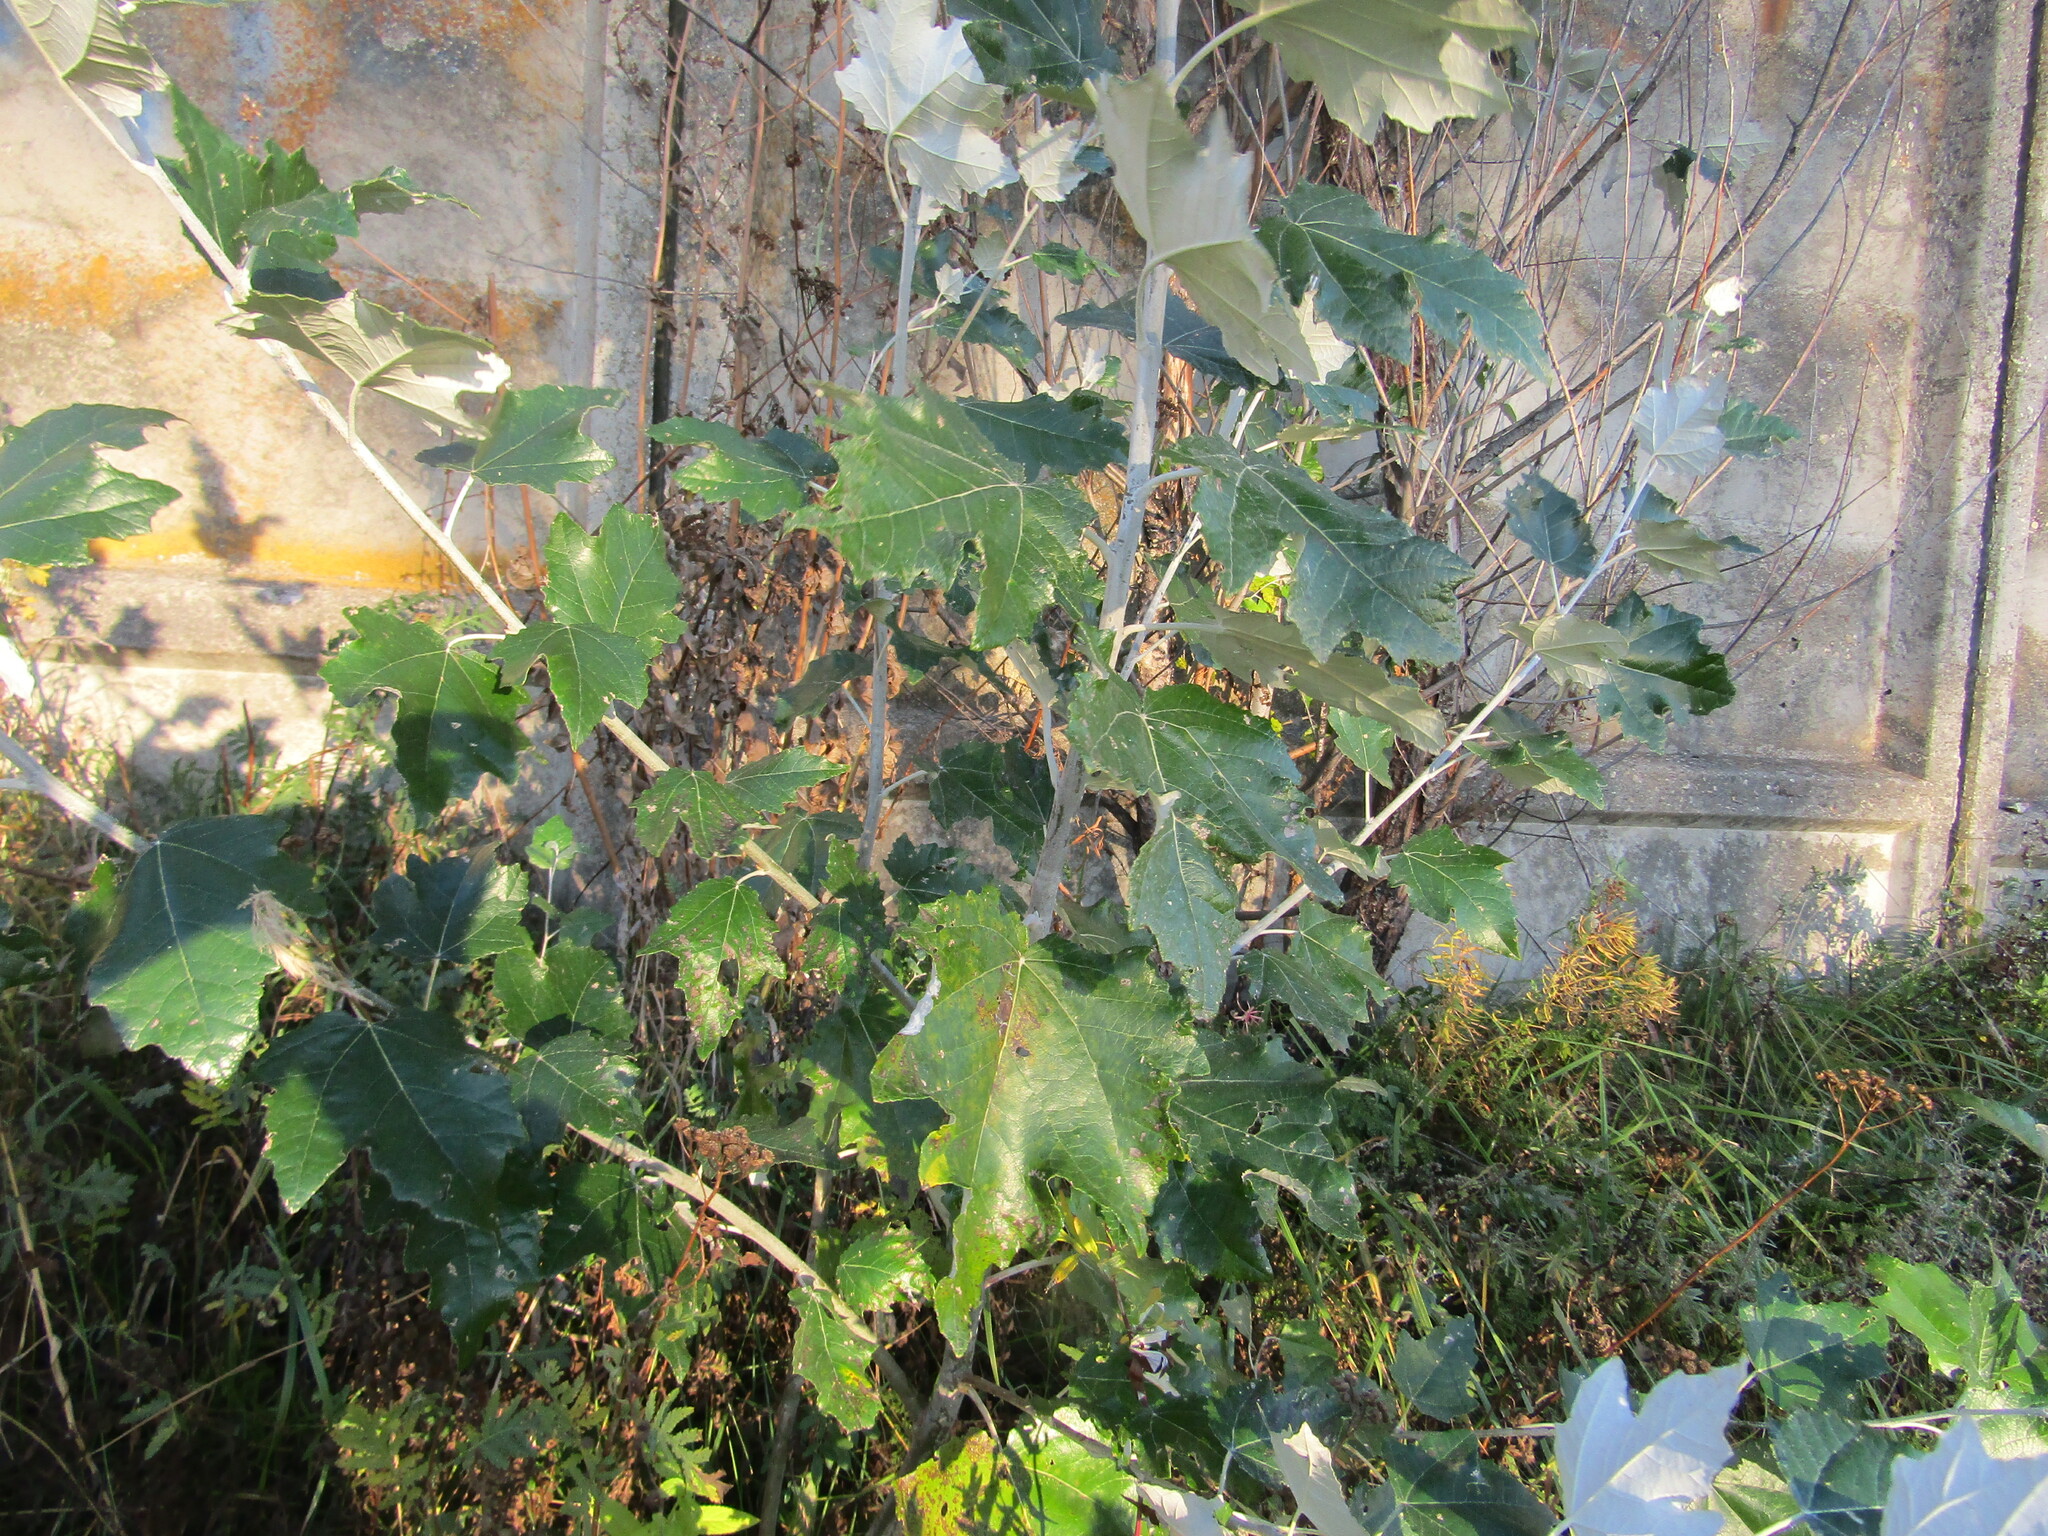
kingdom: Plantae
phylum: Tracheophyta
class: Magnoliopsida
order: Malpighiales
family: Salicaceae
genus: Populus
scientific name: Populus alba
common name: White poplar
